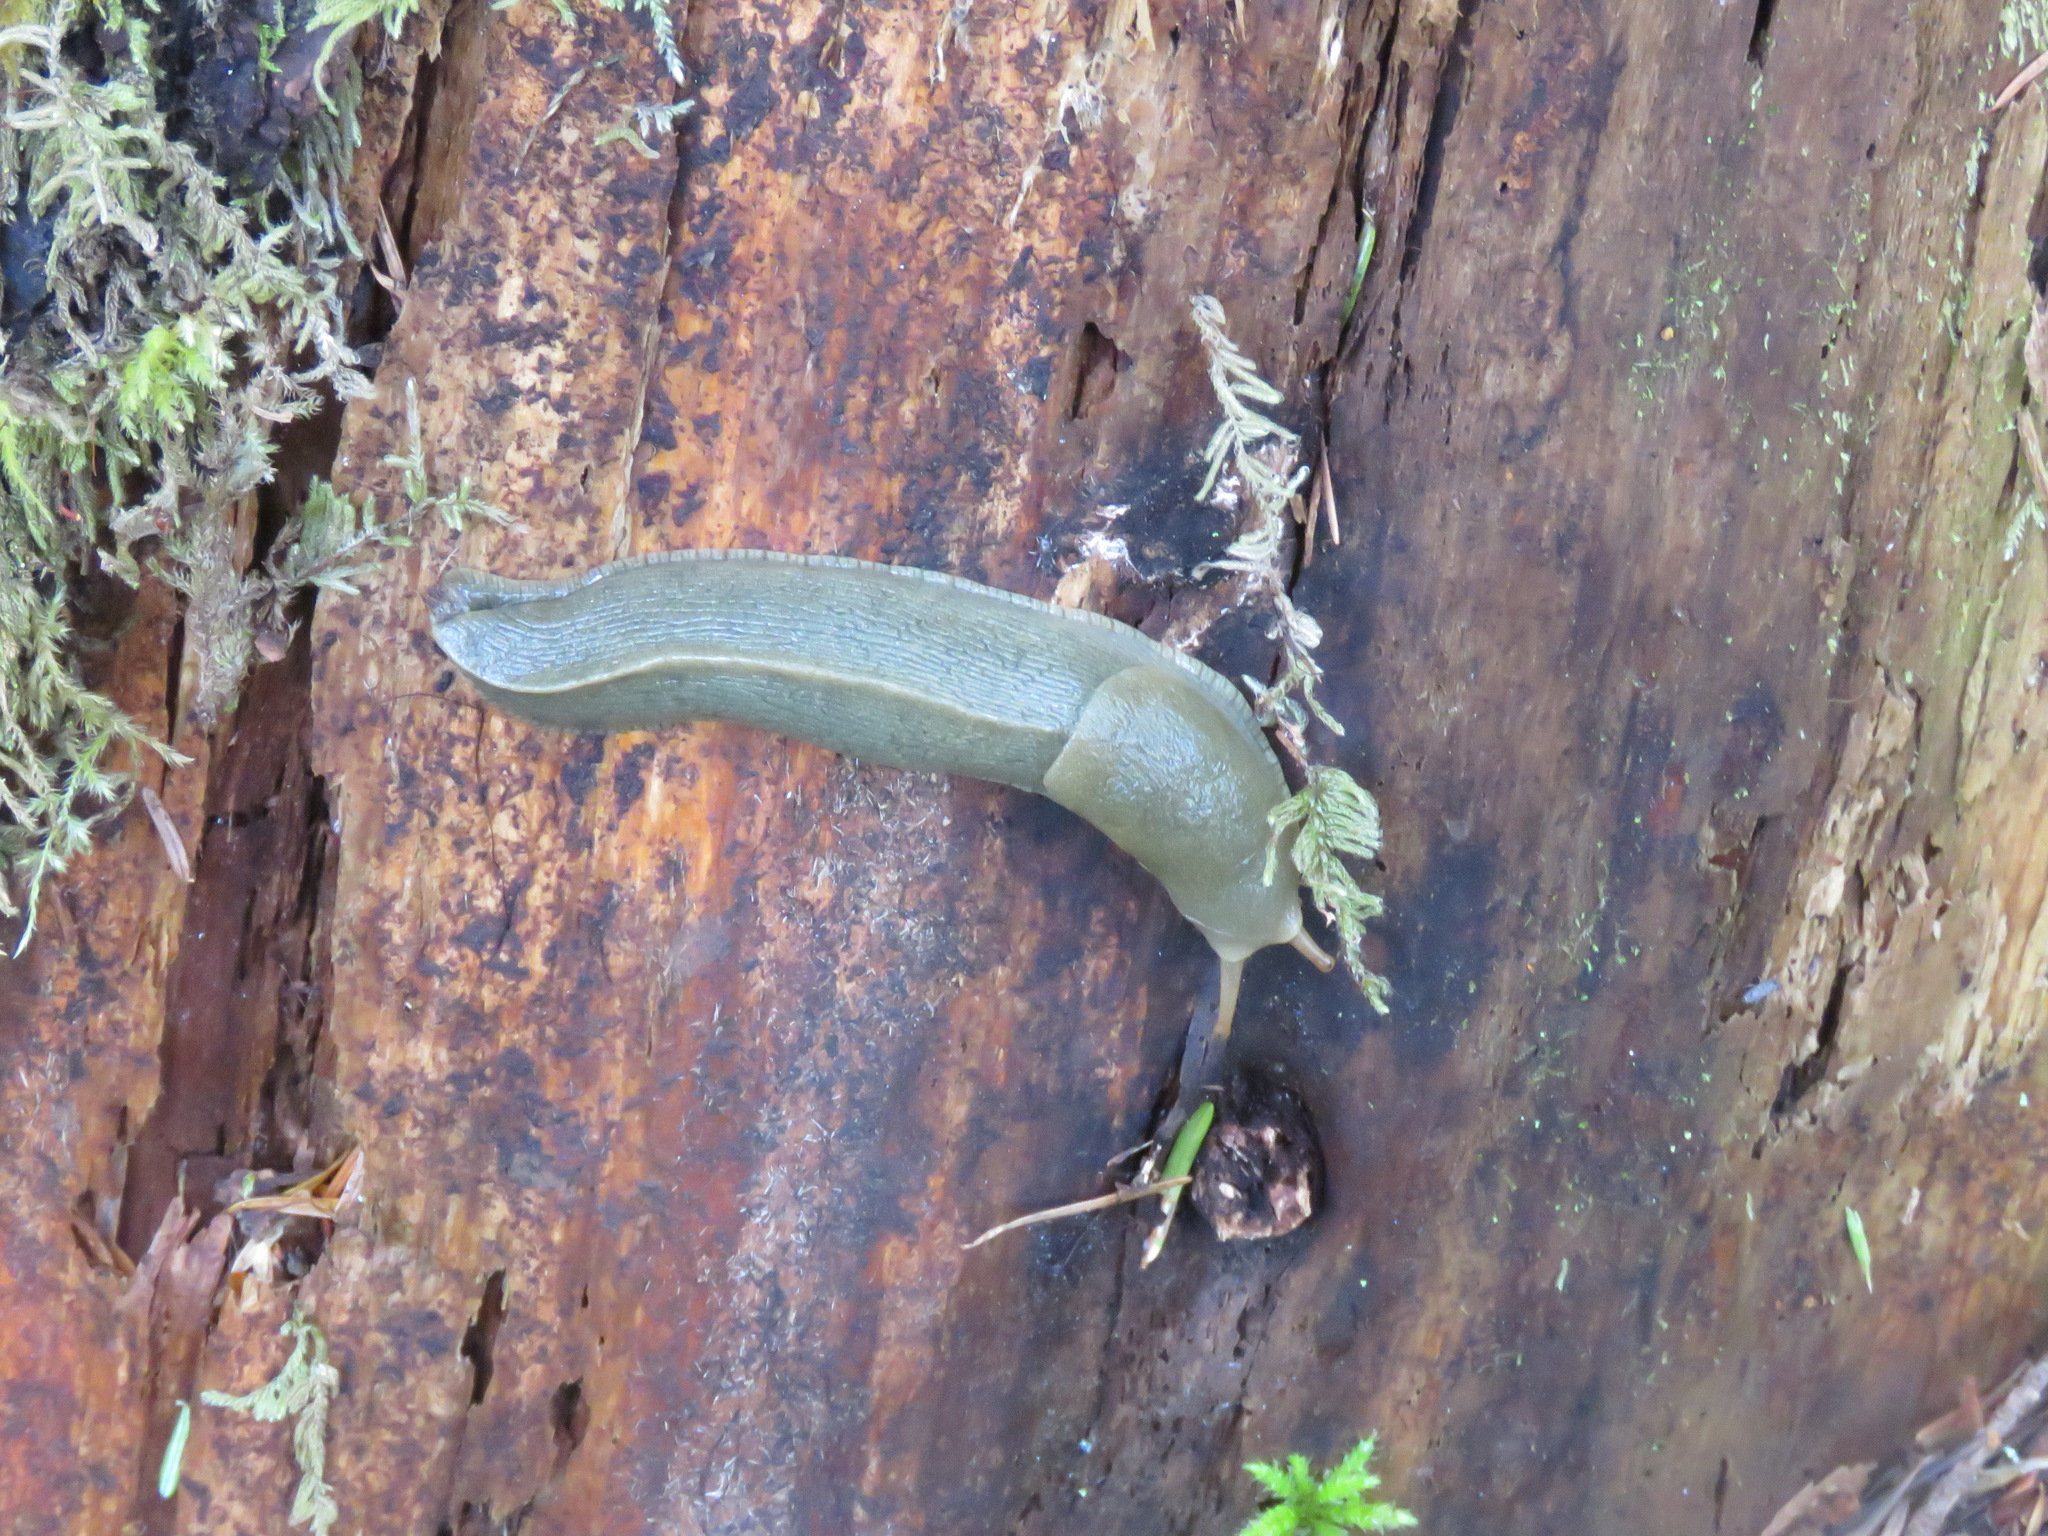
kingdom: Animalia
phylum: Mollusca
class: Gastropoda
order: Stylommatophora
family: Ariolimacidae
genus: Ariolimax
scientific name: Ariolimax columbianus
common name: Pacific banana slug
